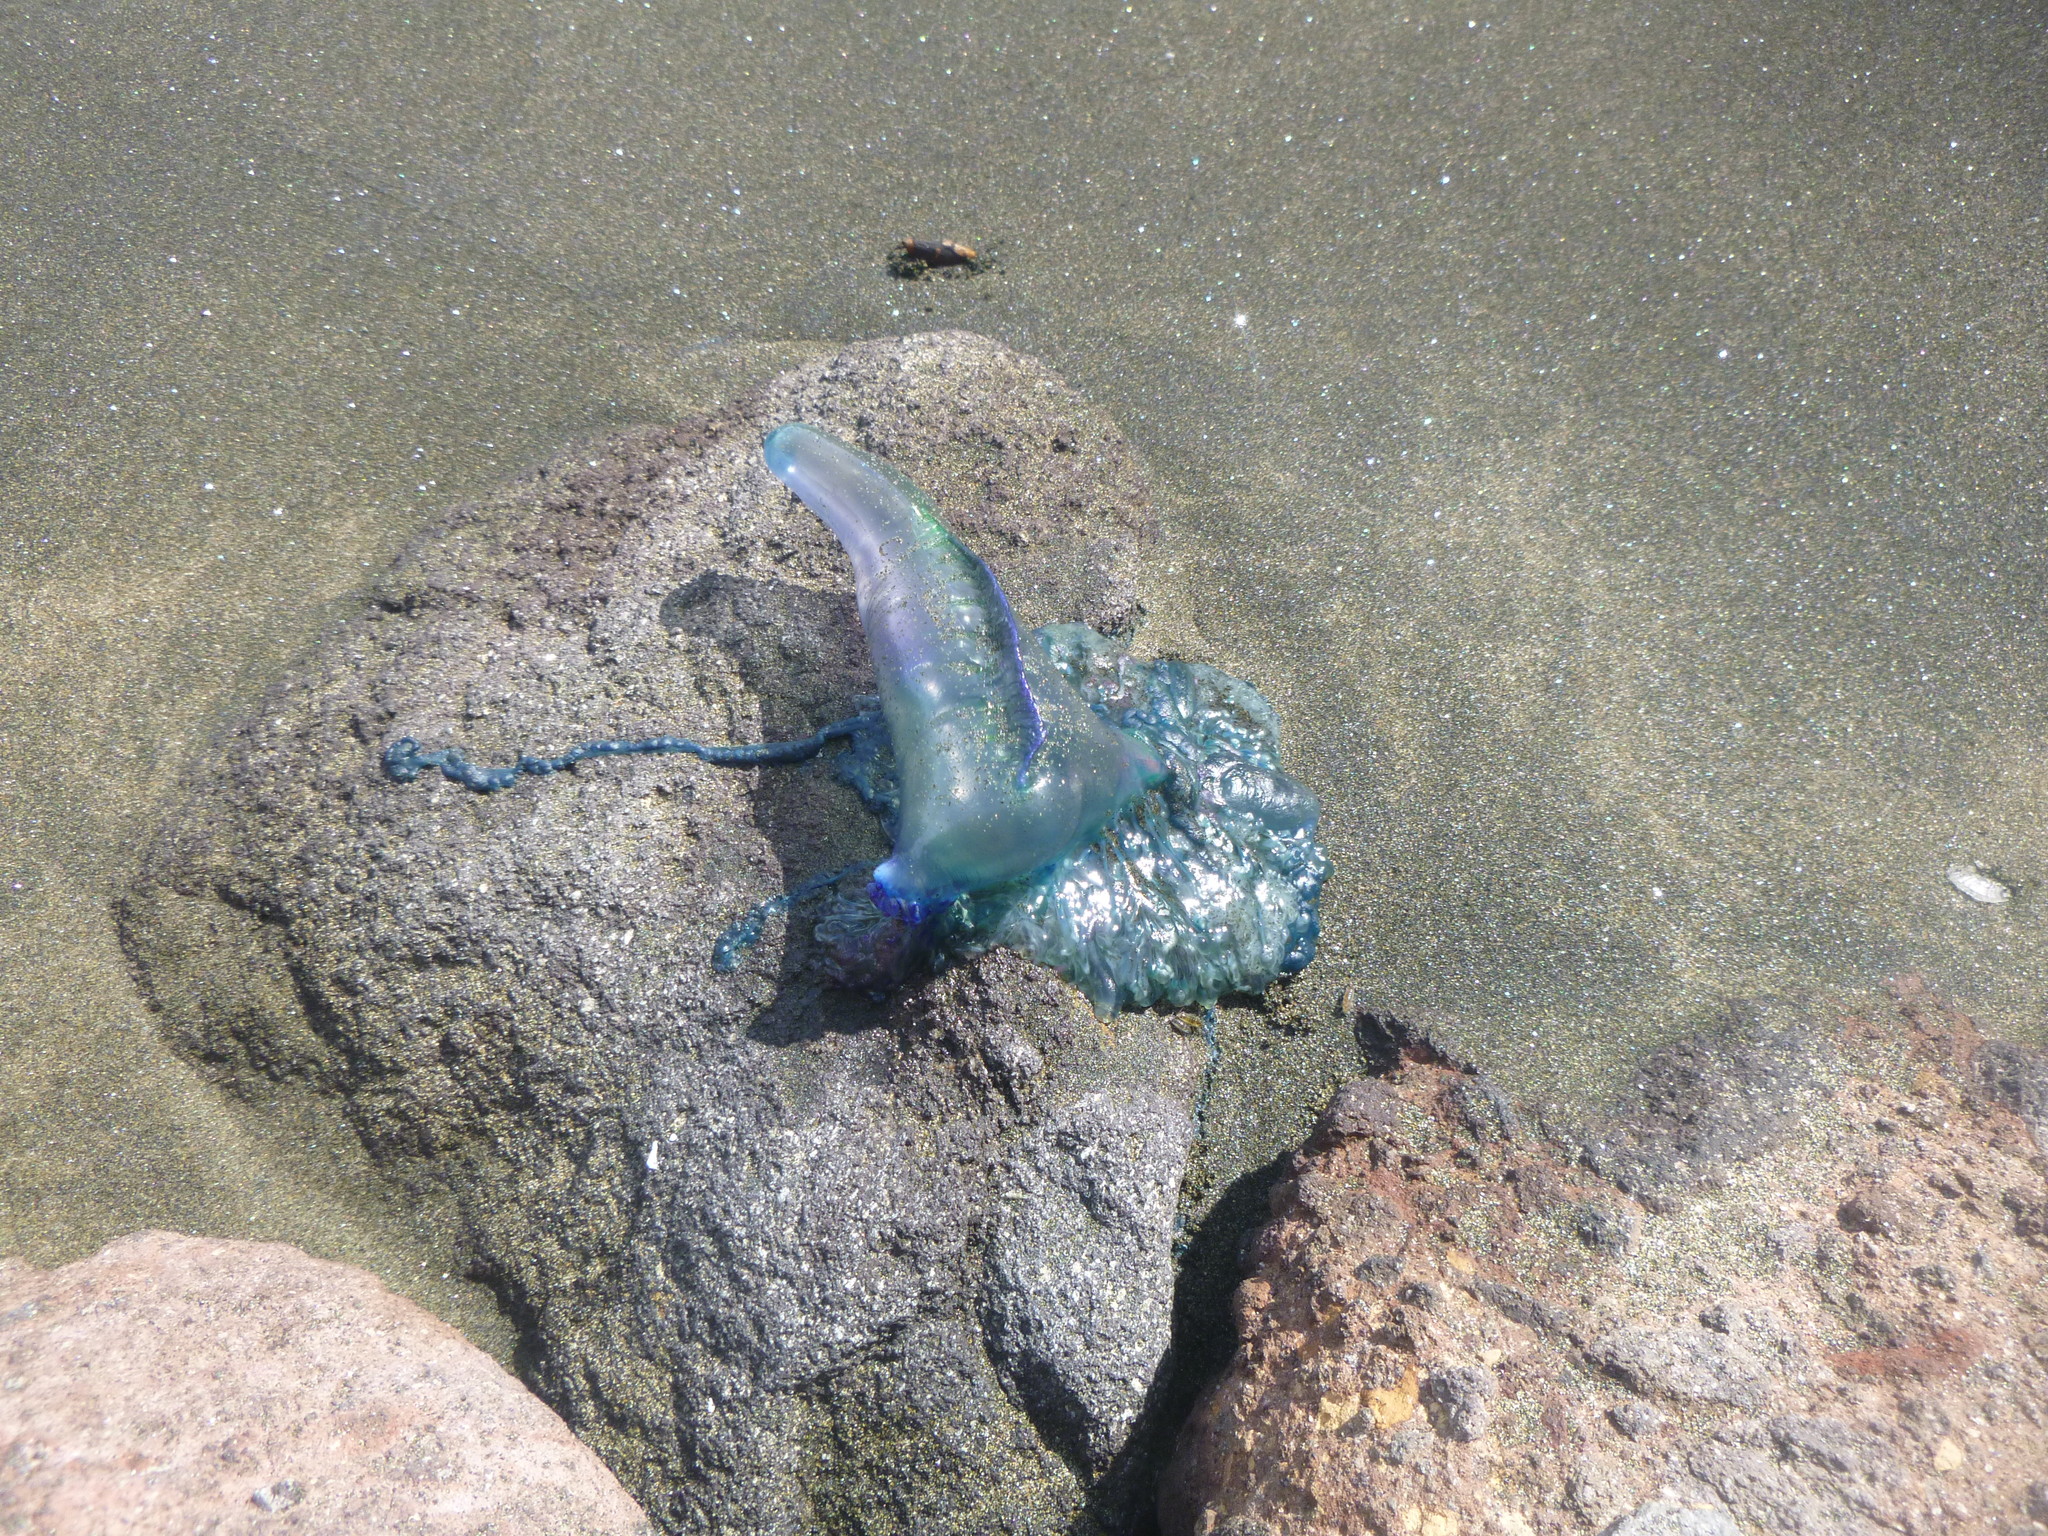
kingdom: Animalia
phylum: Cnidaria
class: Hydrozoa
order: Siphonophorae
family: Physaliidae
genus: Physalia
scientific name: Physalia physalis
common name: Portuguese man-of-war
